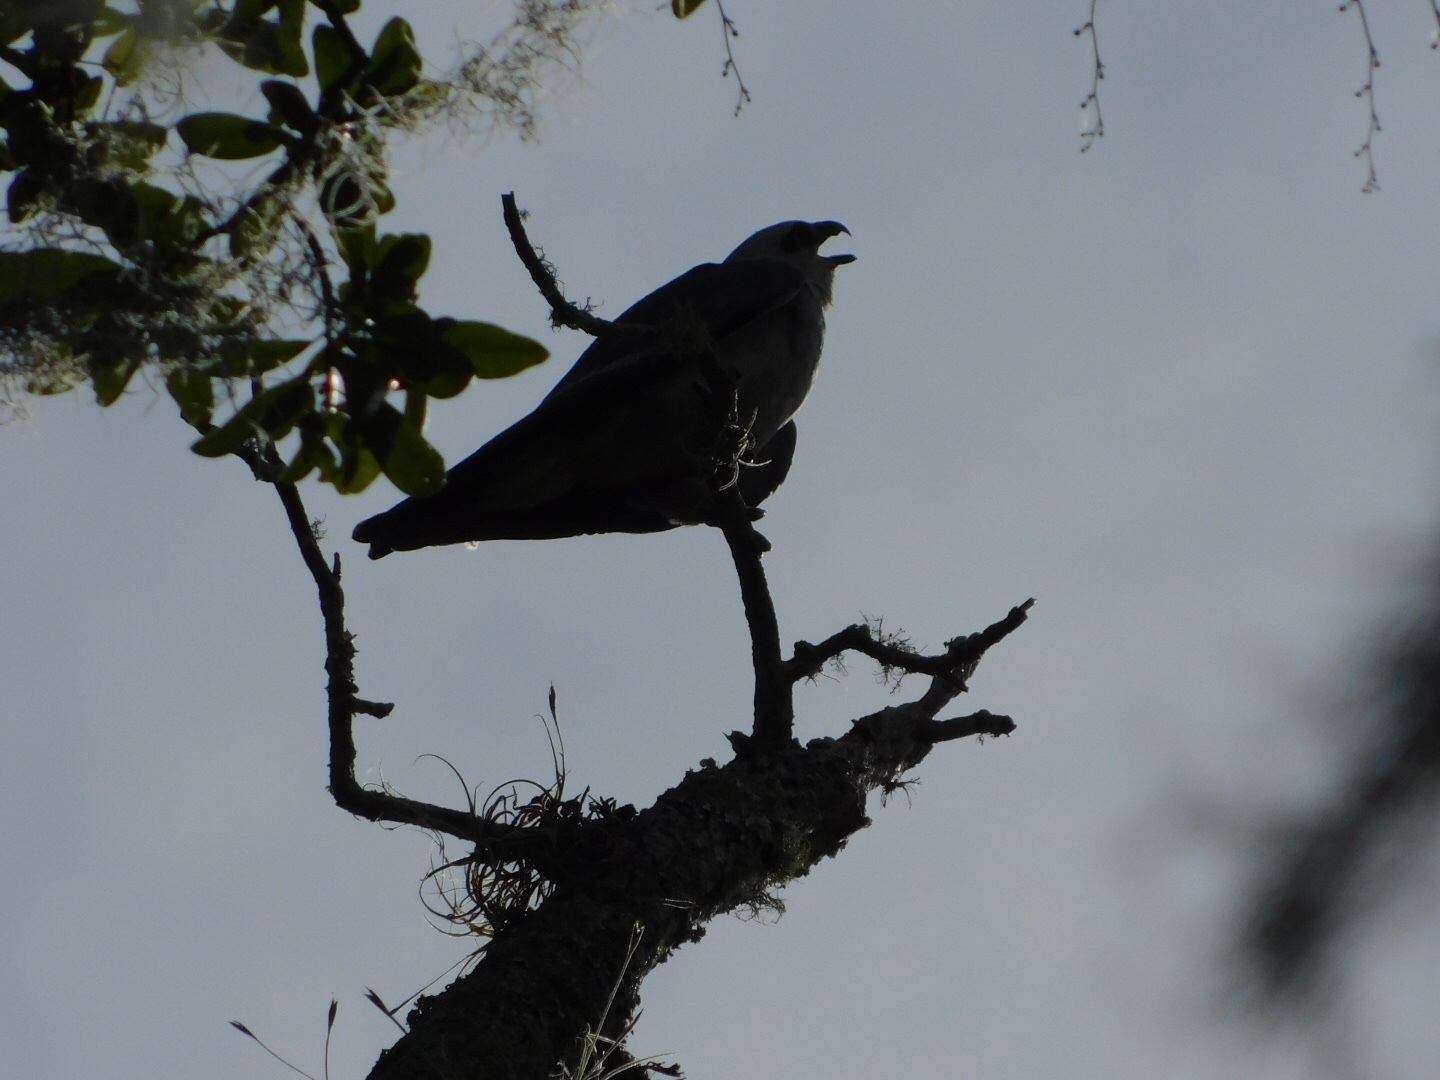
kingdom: Animalia
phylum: Chordata
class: Aves
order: Accipitriformes
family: Accipitridae
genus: Ictinia
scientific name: Ictinia mississippiensis
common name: Mississippi kite
